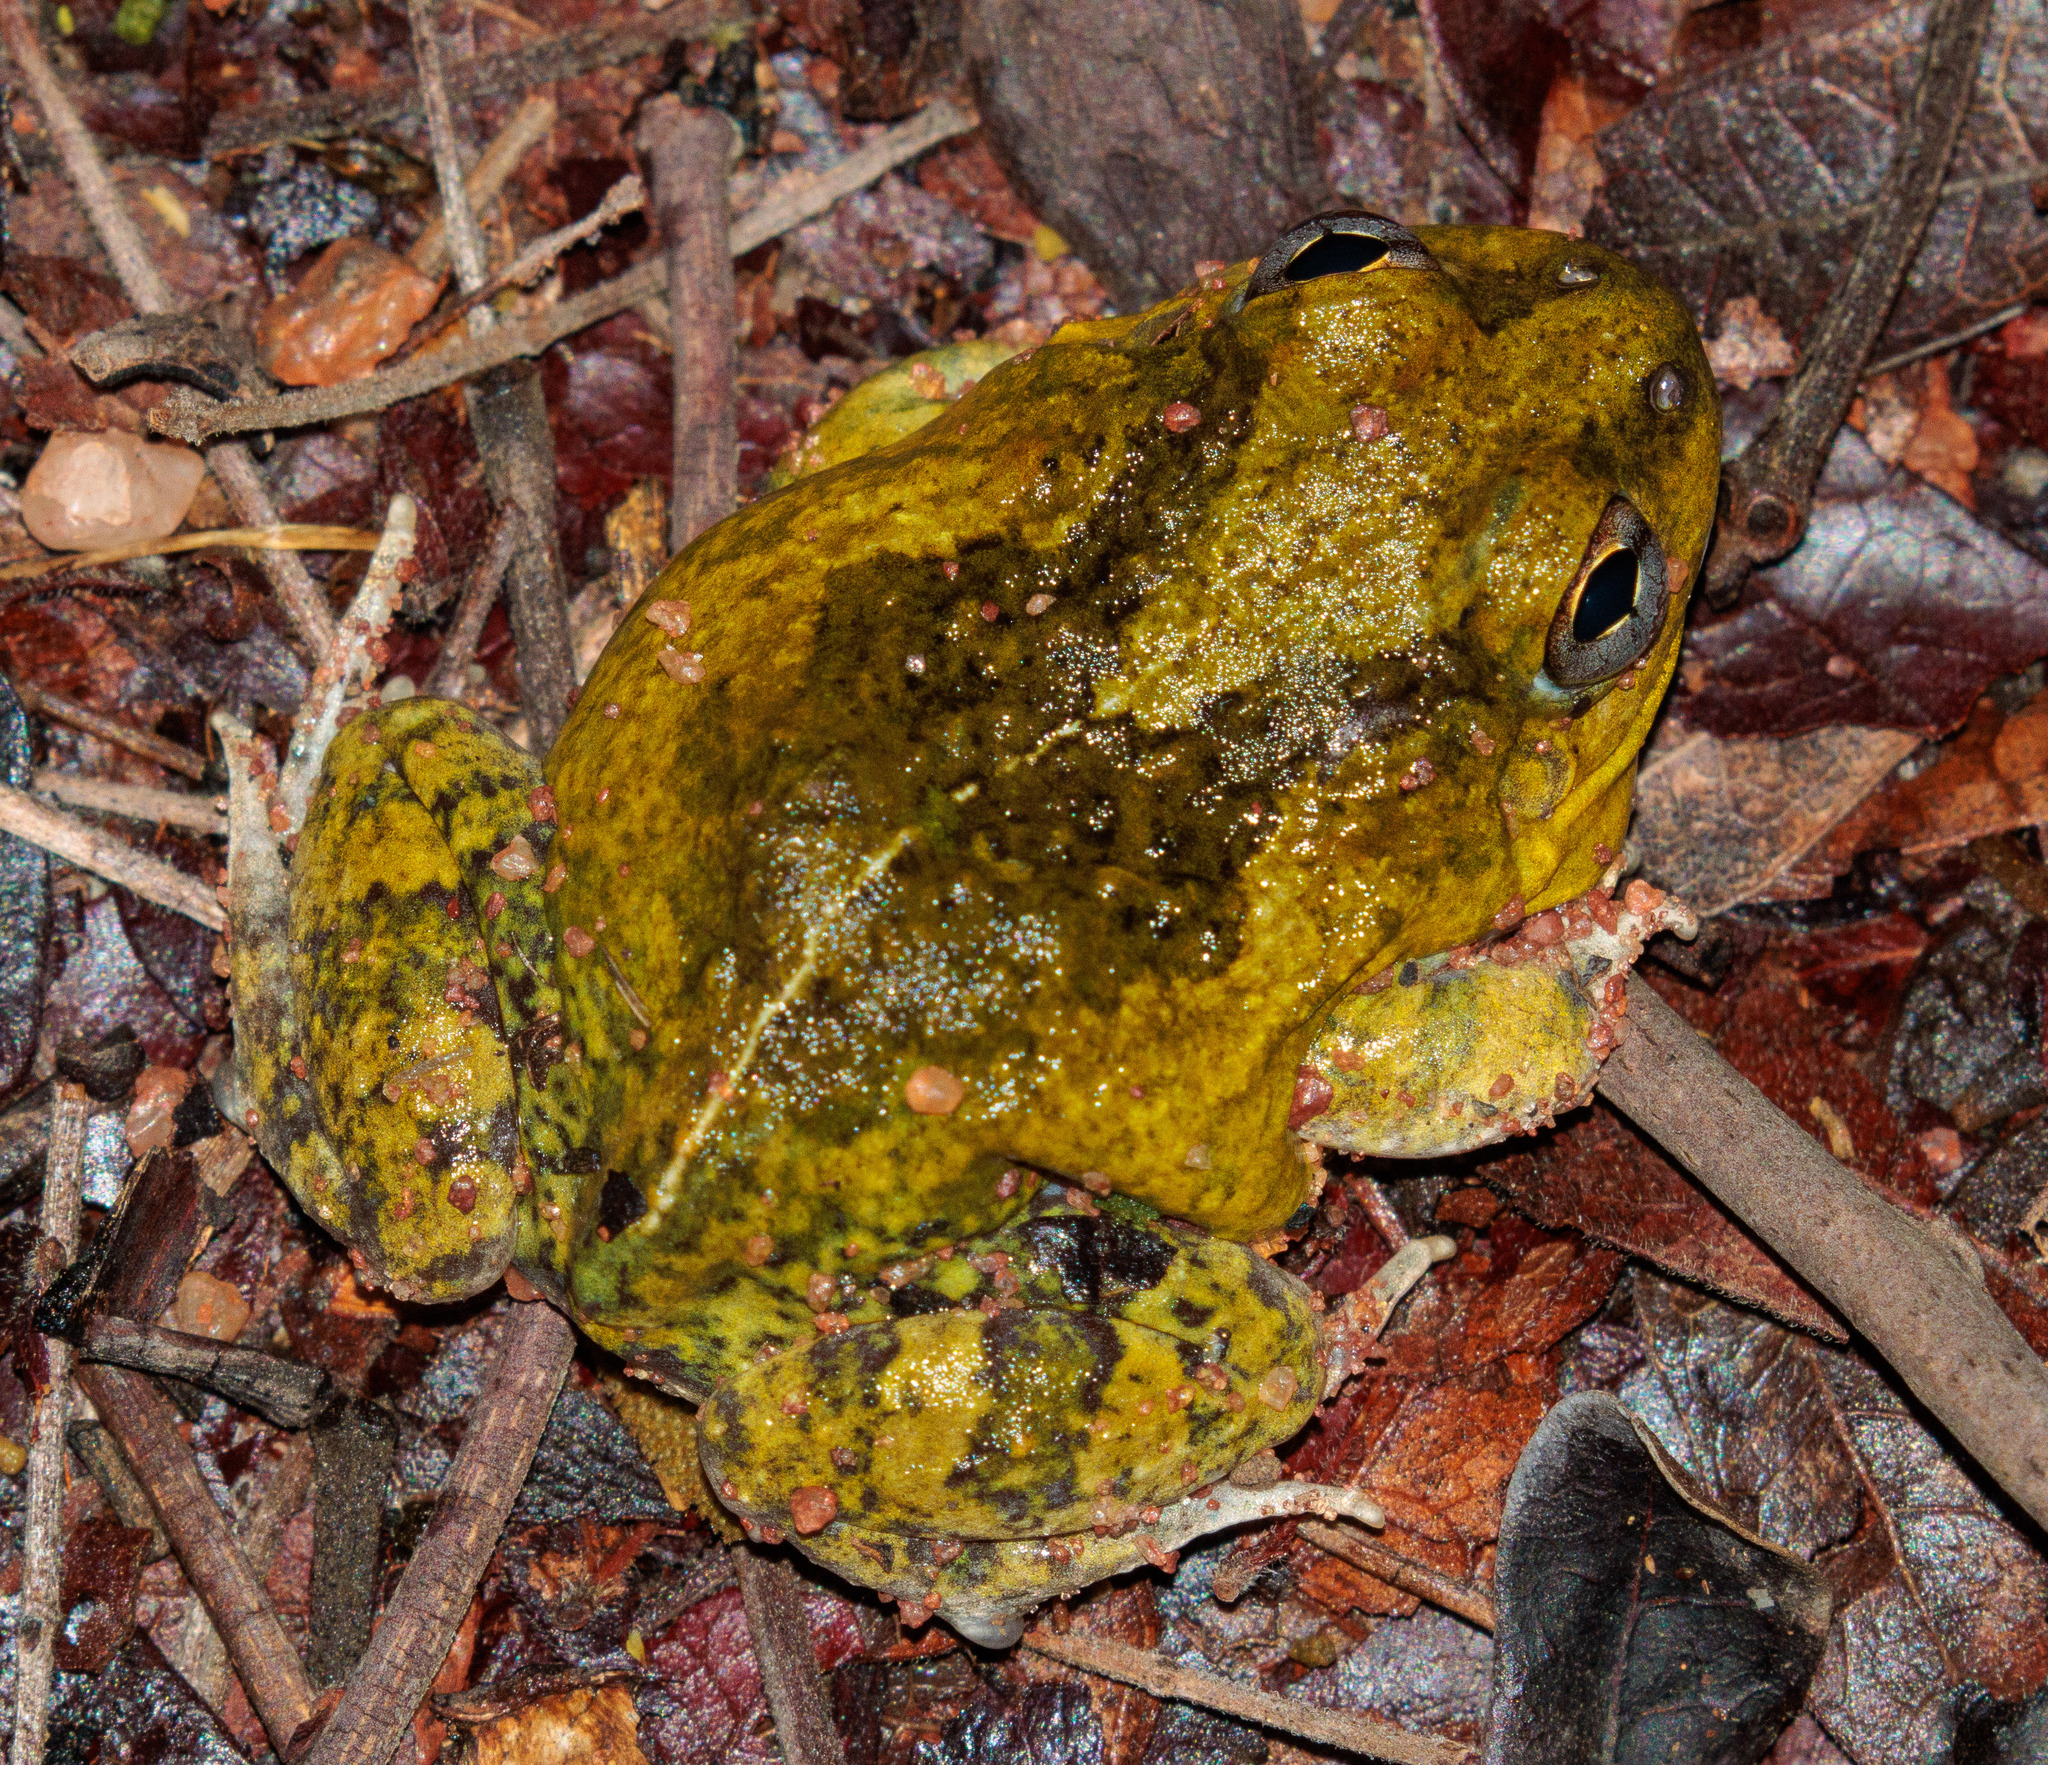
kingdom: Animalia
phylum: Chordata
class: Amphibia
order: Anura
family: Leptodactylidae
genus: Pleurodema
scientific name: Pleurodema diplolister
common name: Peters' four-eyed frog
